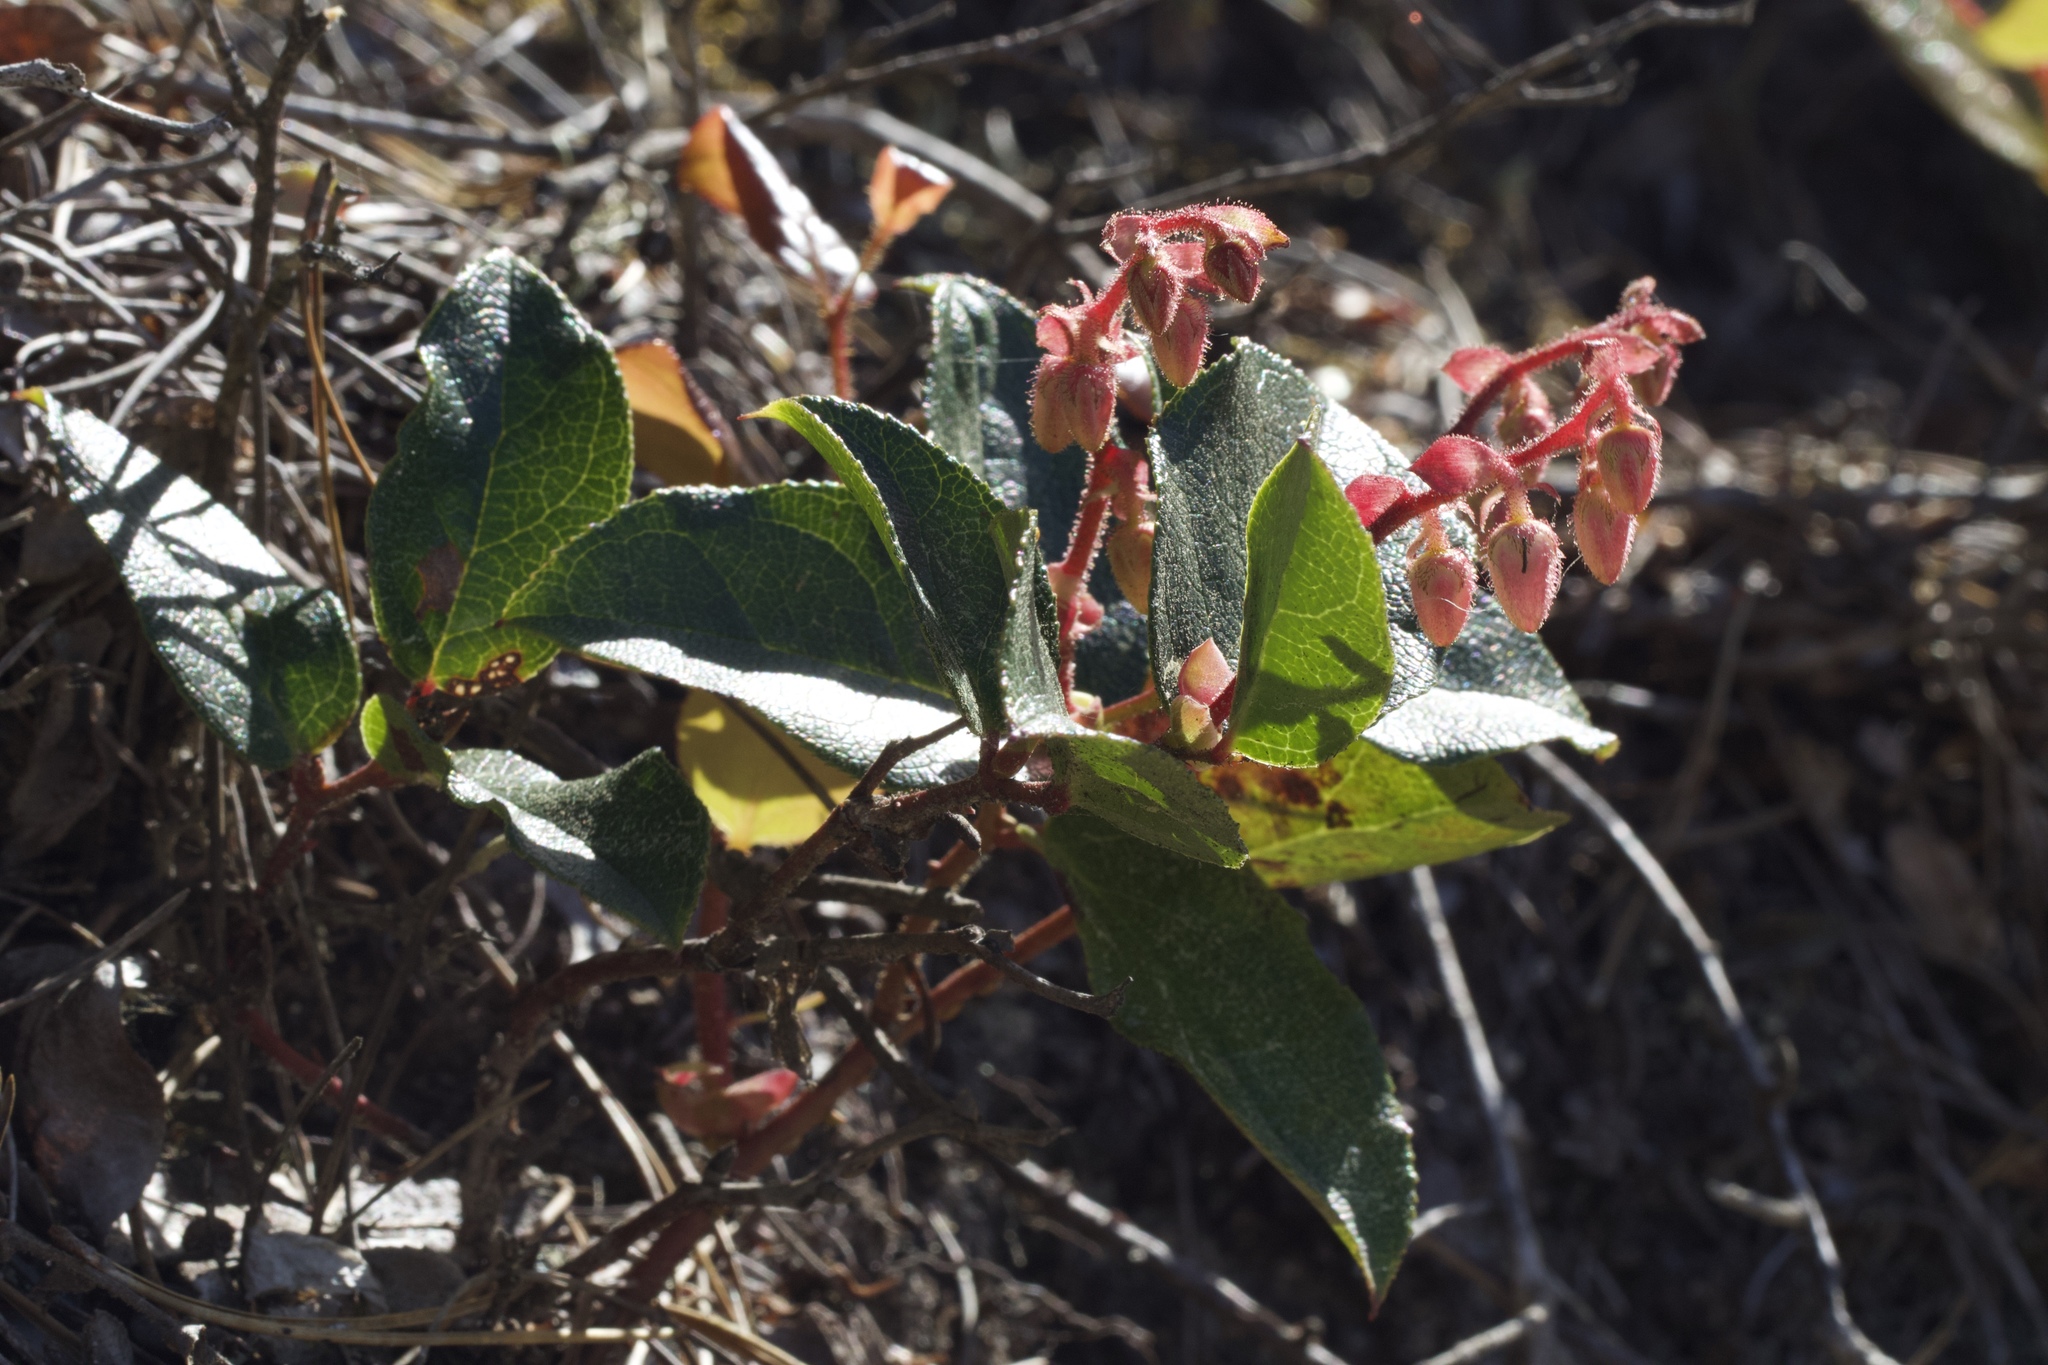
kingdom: Plantae
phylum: Tracheophyta
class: Magnoliopsida
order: Ericales
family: Ericaceae
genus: Gaultheria
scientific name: Gaultheria shallon
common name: Shallon
